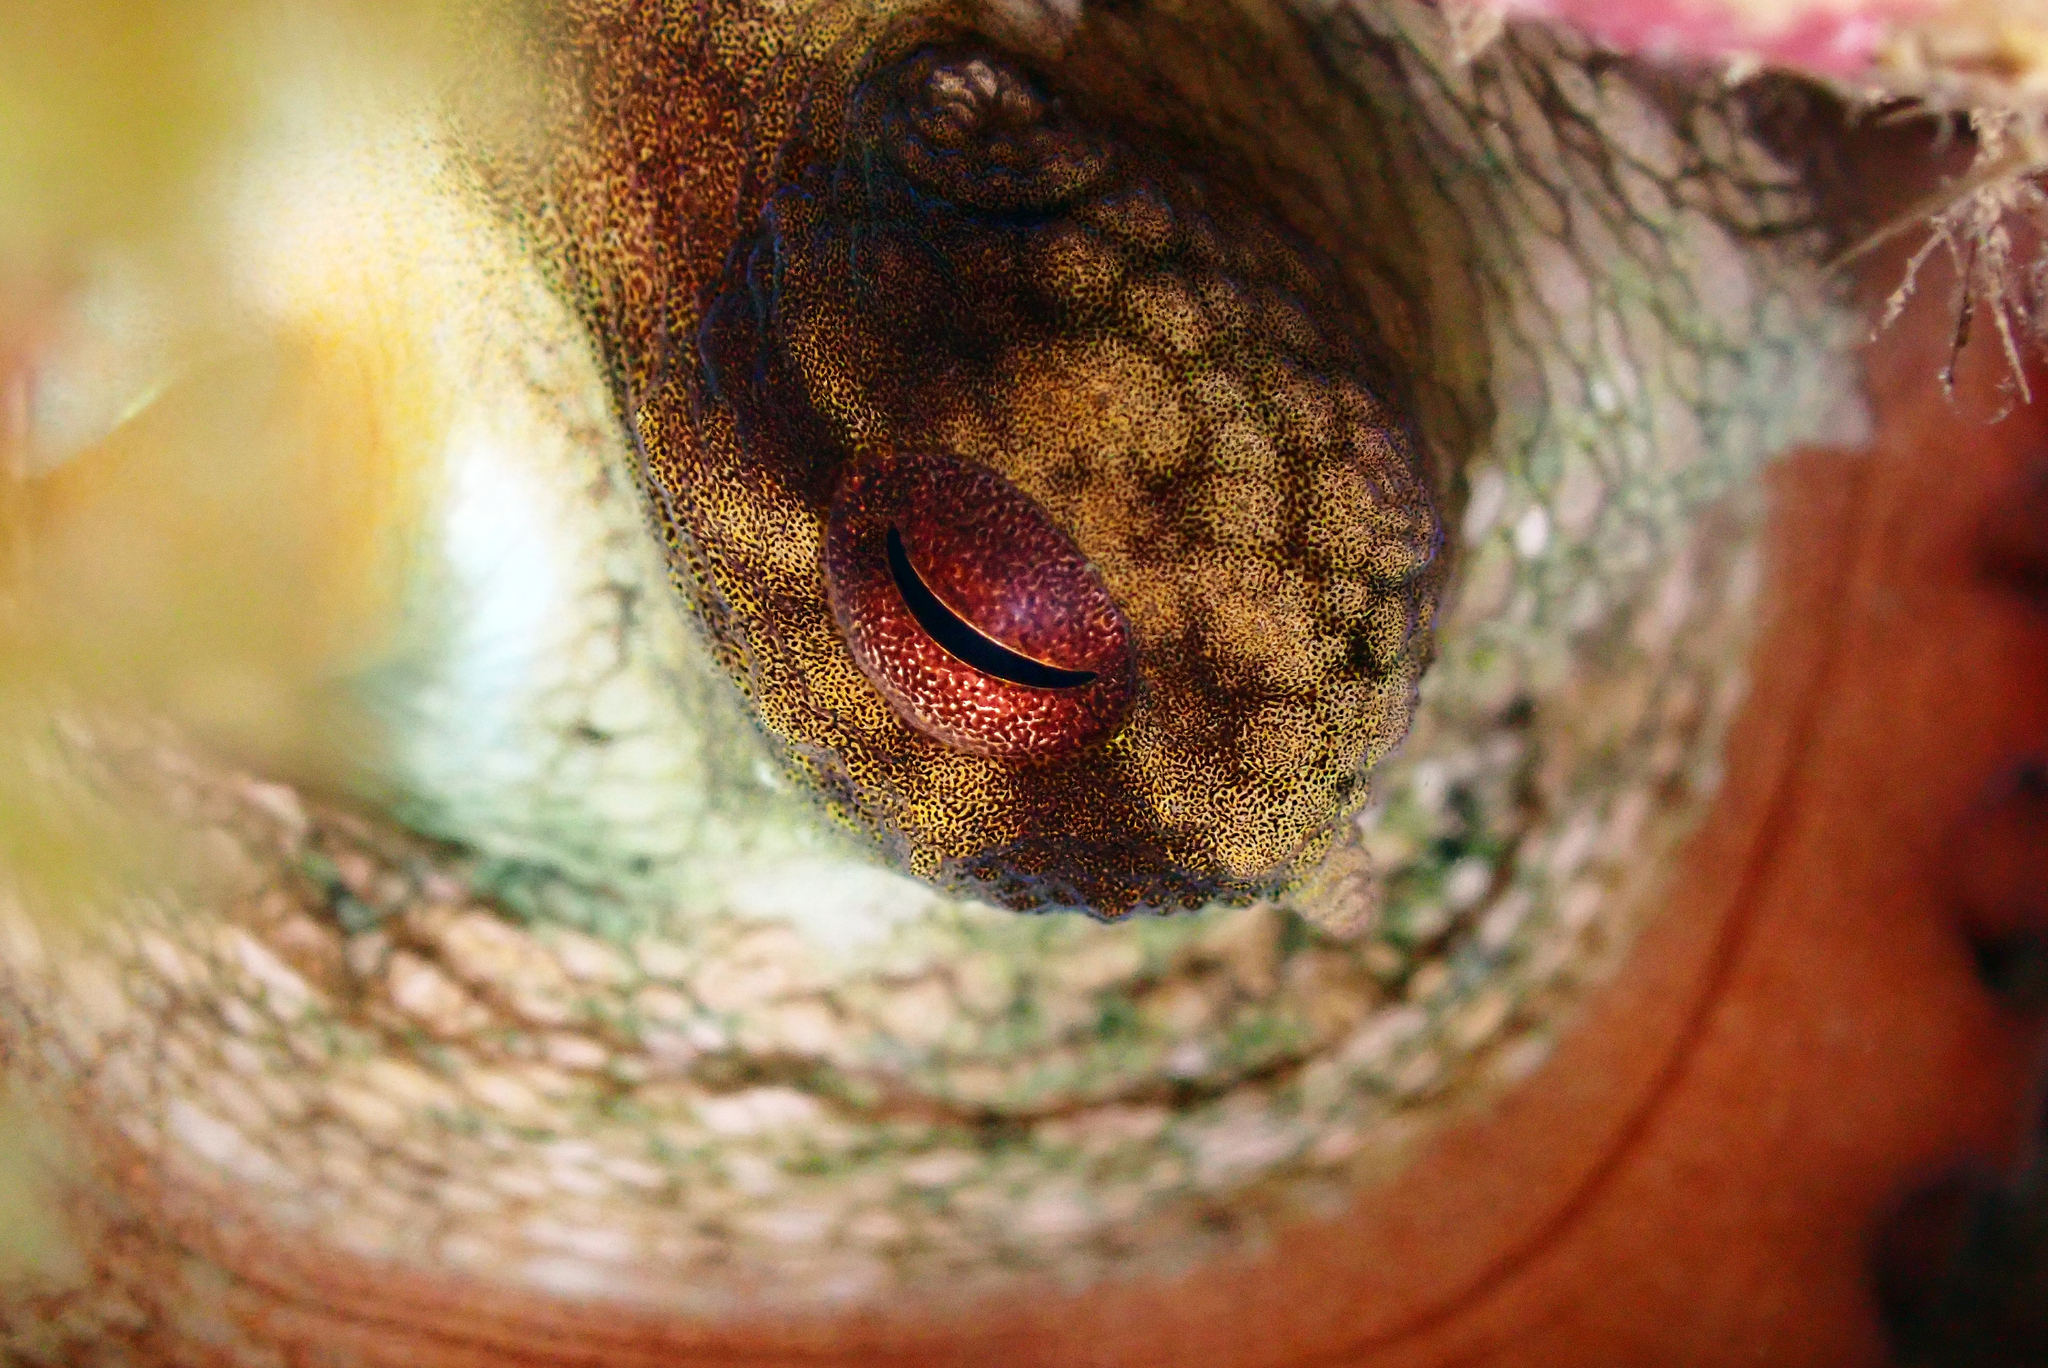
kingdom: Animalia
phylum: Mollusca
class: Cephalopoda
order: Octopoda
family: Octopodidae
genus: Octopus
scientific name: Octopus vulgaris
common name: Common octopus
